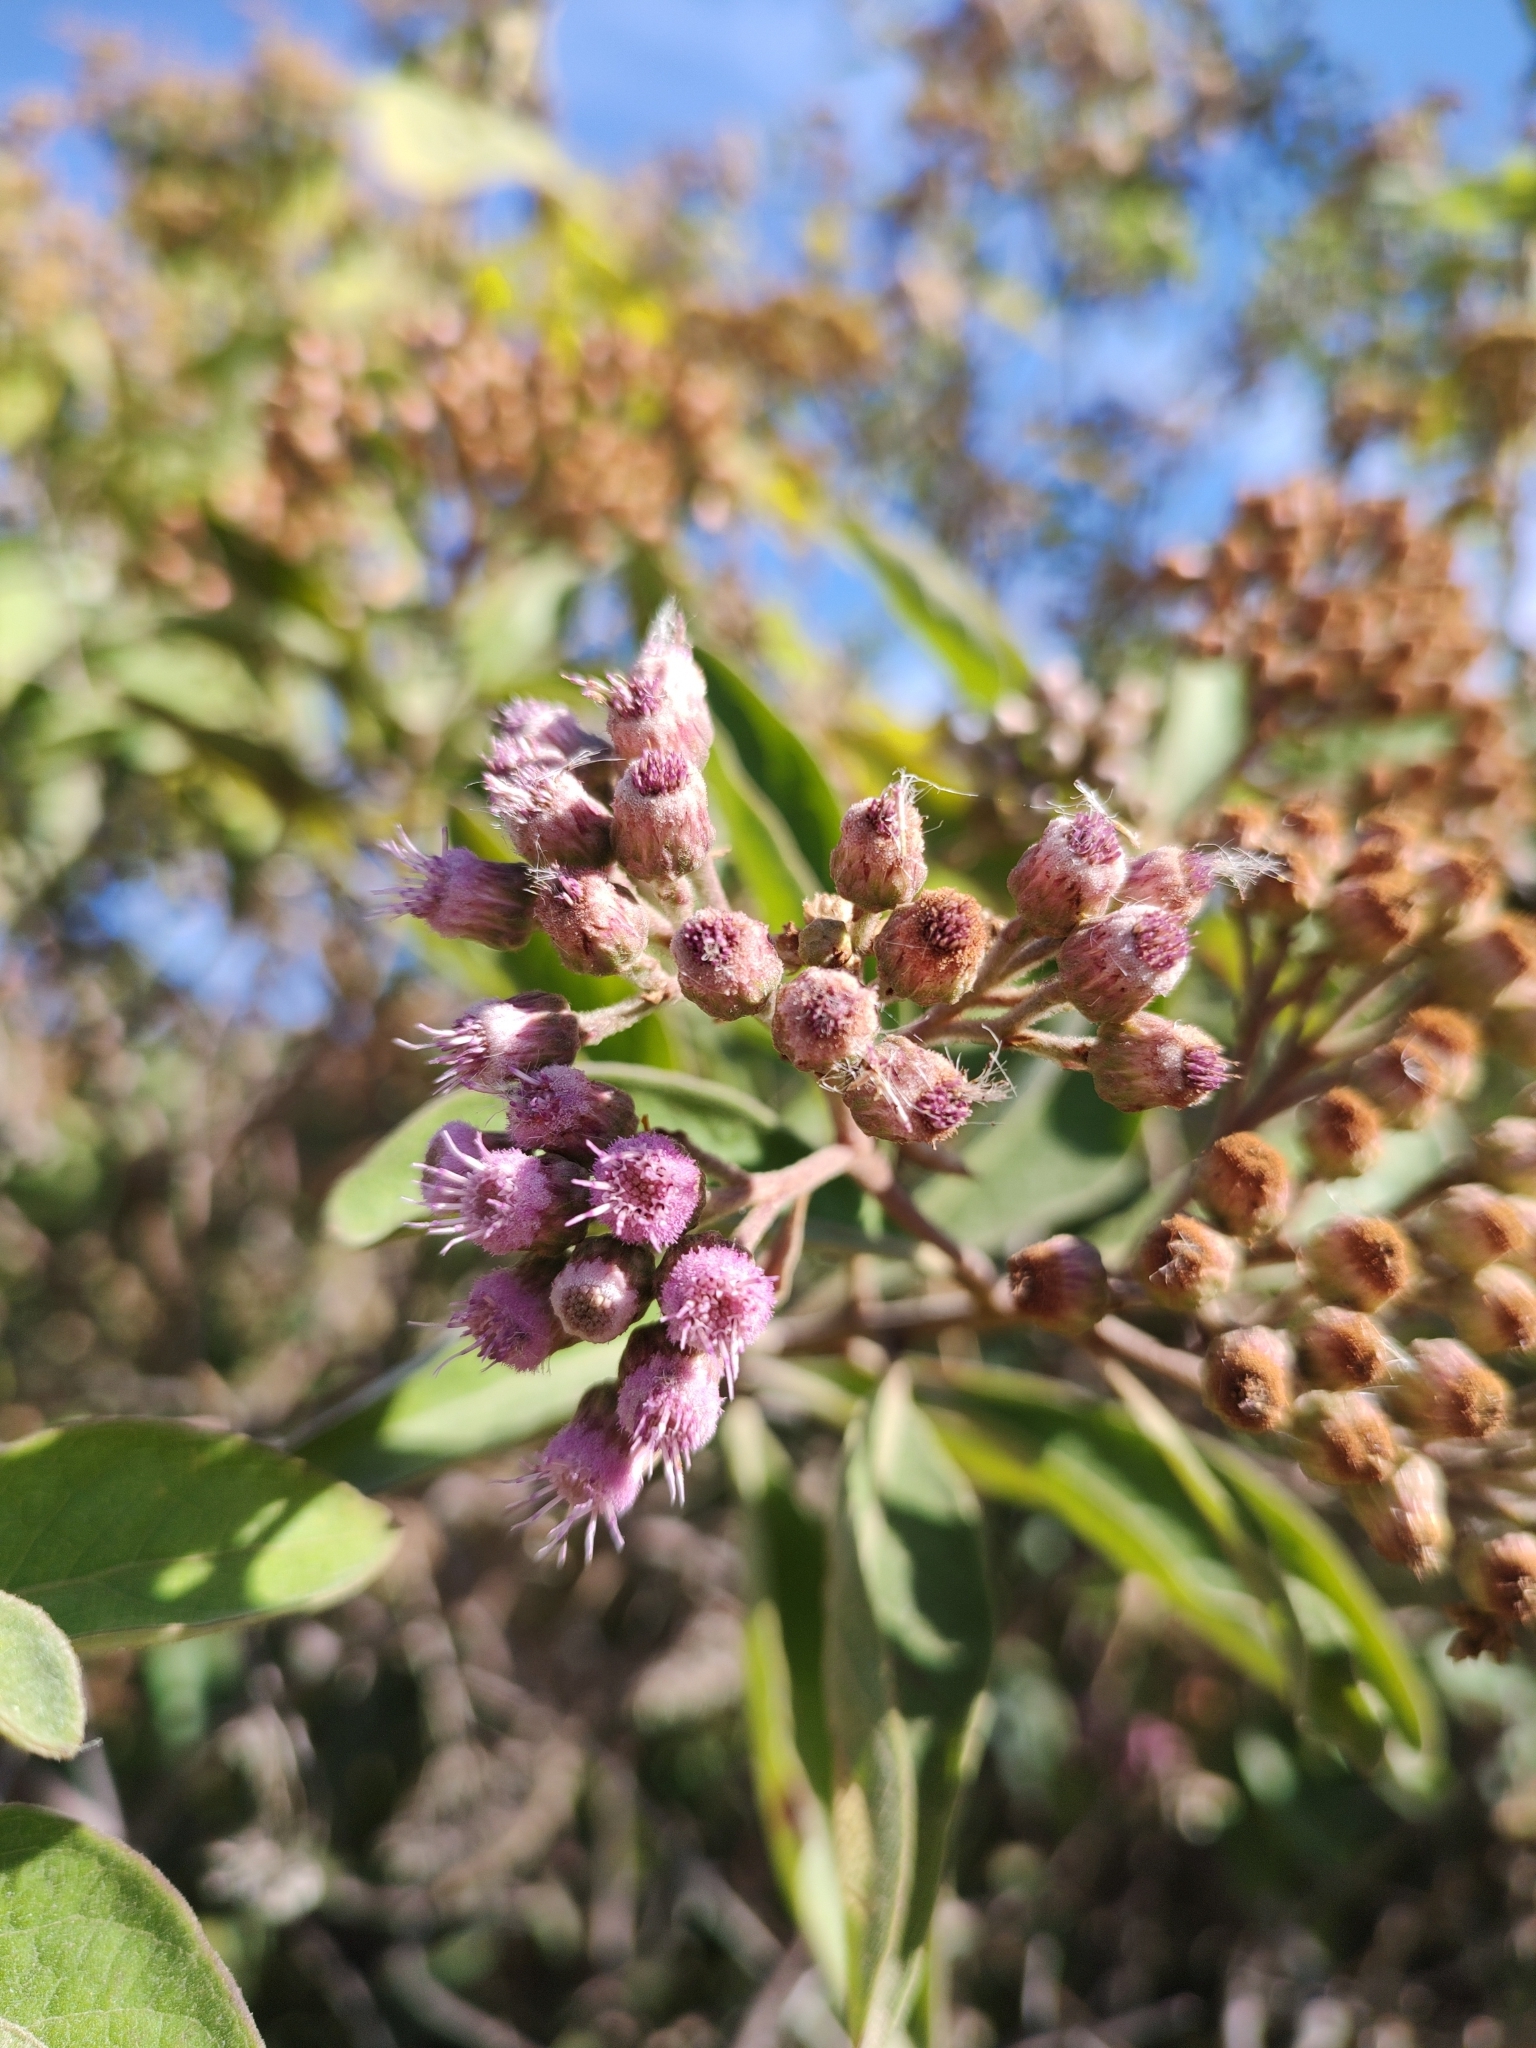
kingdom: Plantae
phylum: Tracheophyta
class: Magnoliopsida
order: Asterales
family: Asteraceae
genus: Pluchea
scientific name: Pluchea carolinensis
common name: Marsh fleabane
